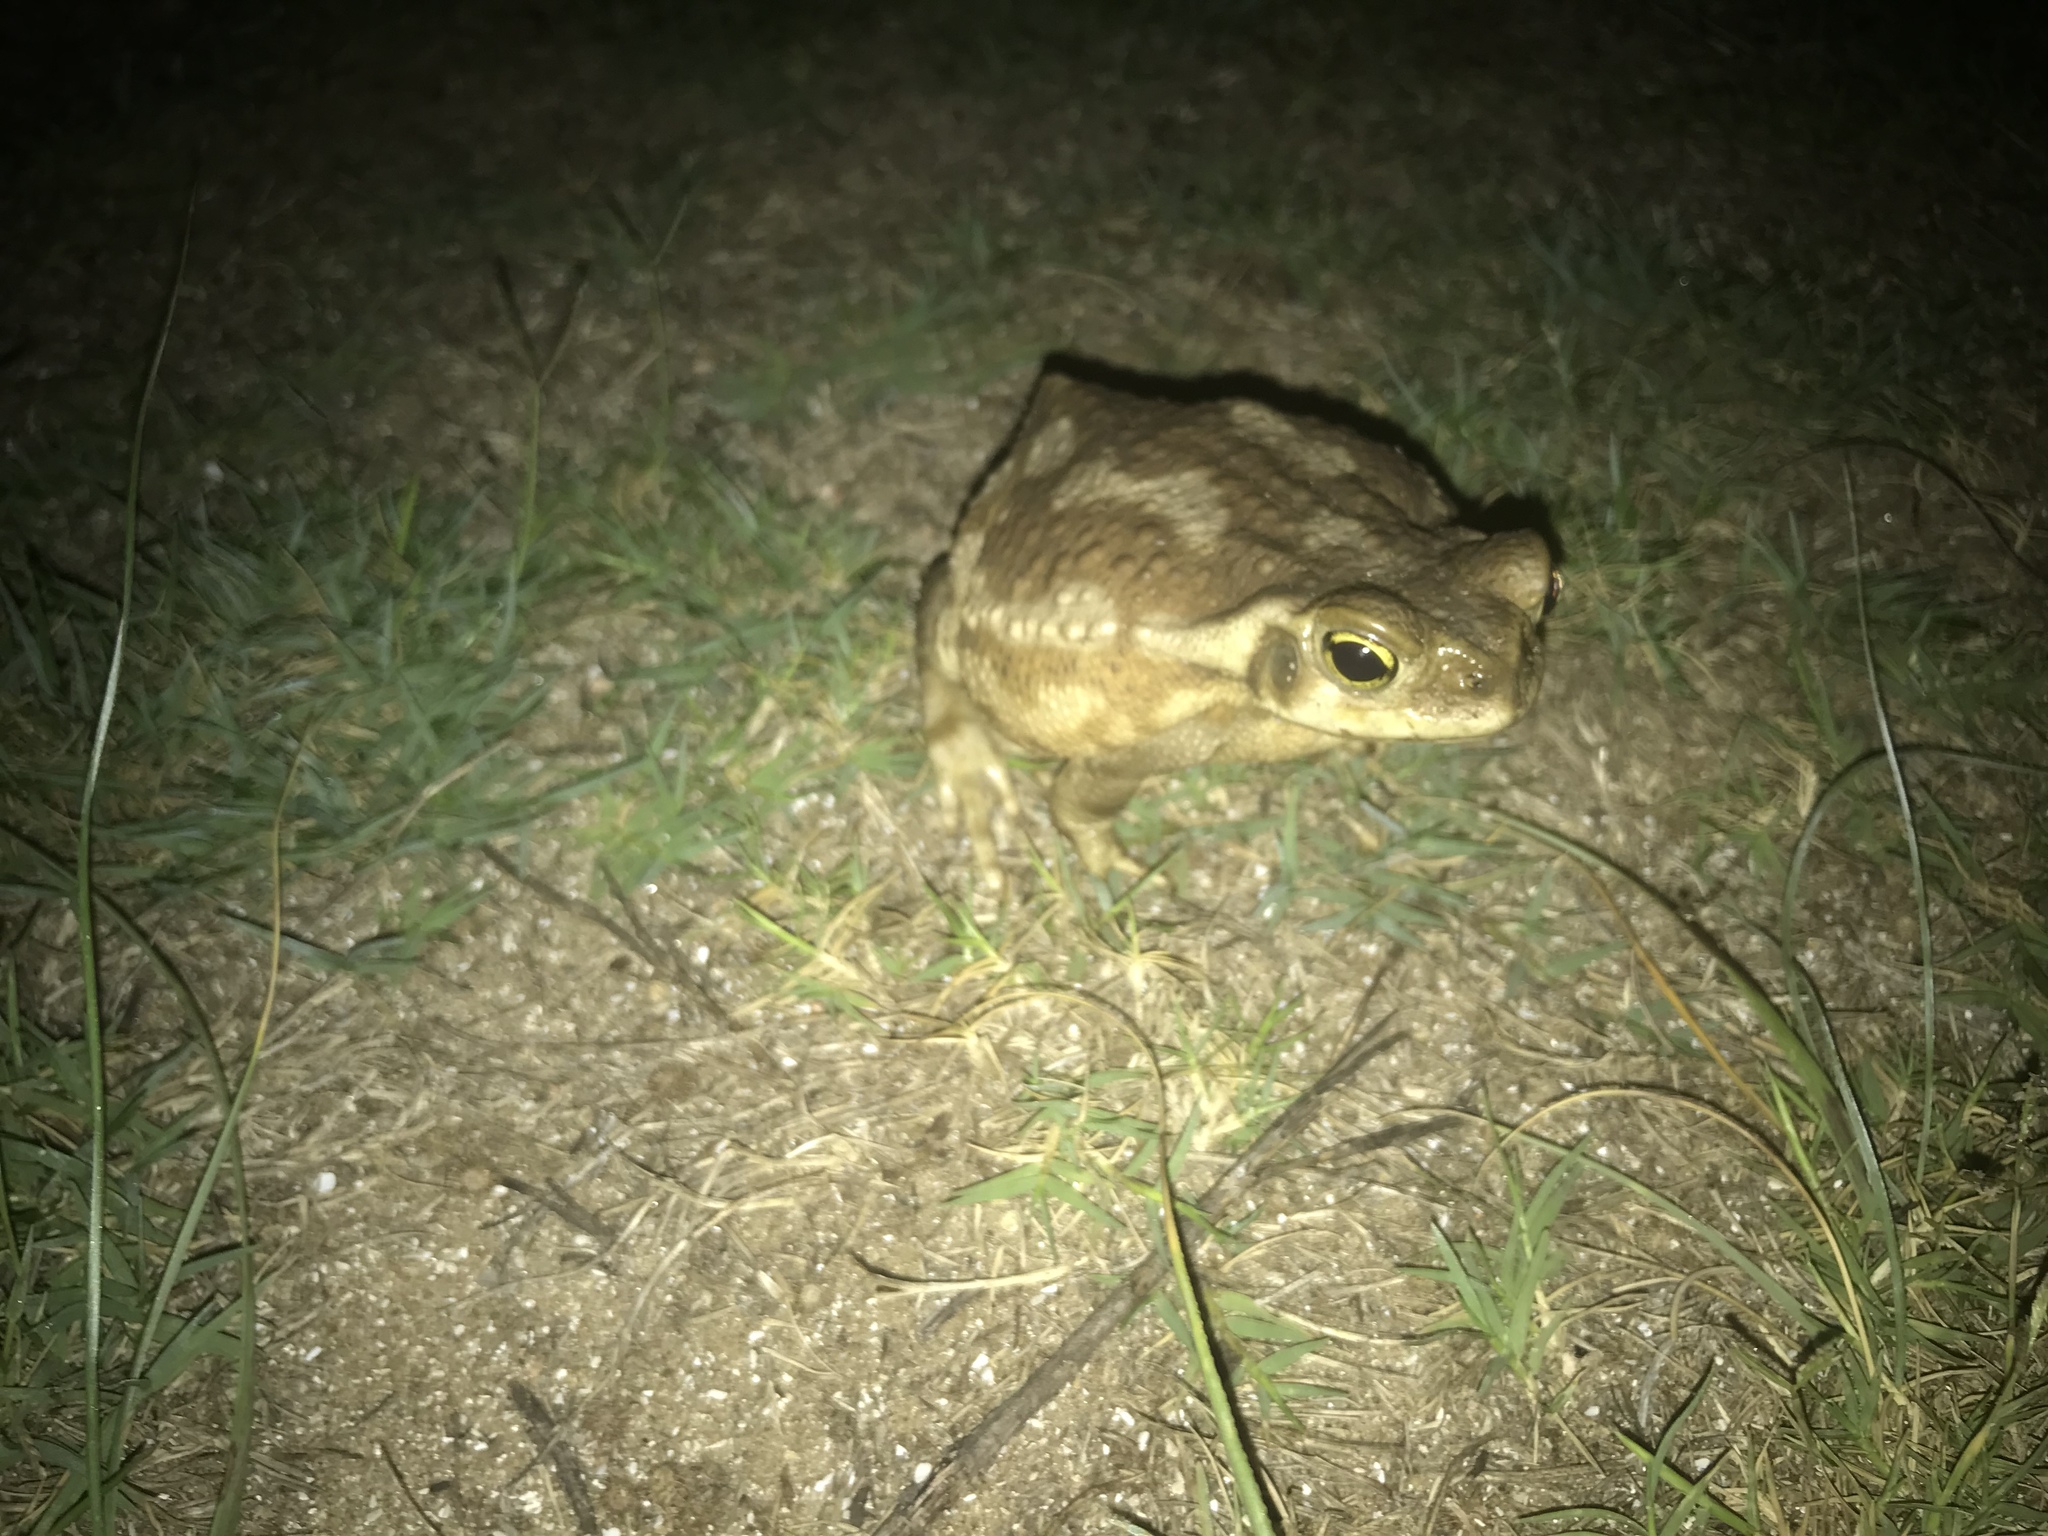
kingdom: Animalia
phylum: Chordata
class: Amphibia
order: Anura
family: Bufonidae
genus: Rhinella
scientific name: Rhinella arenarum
